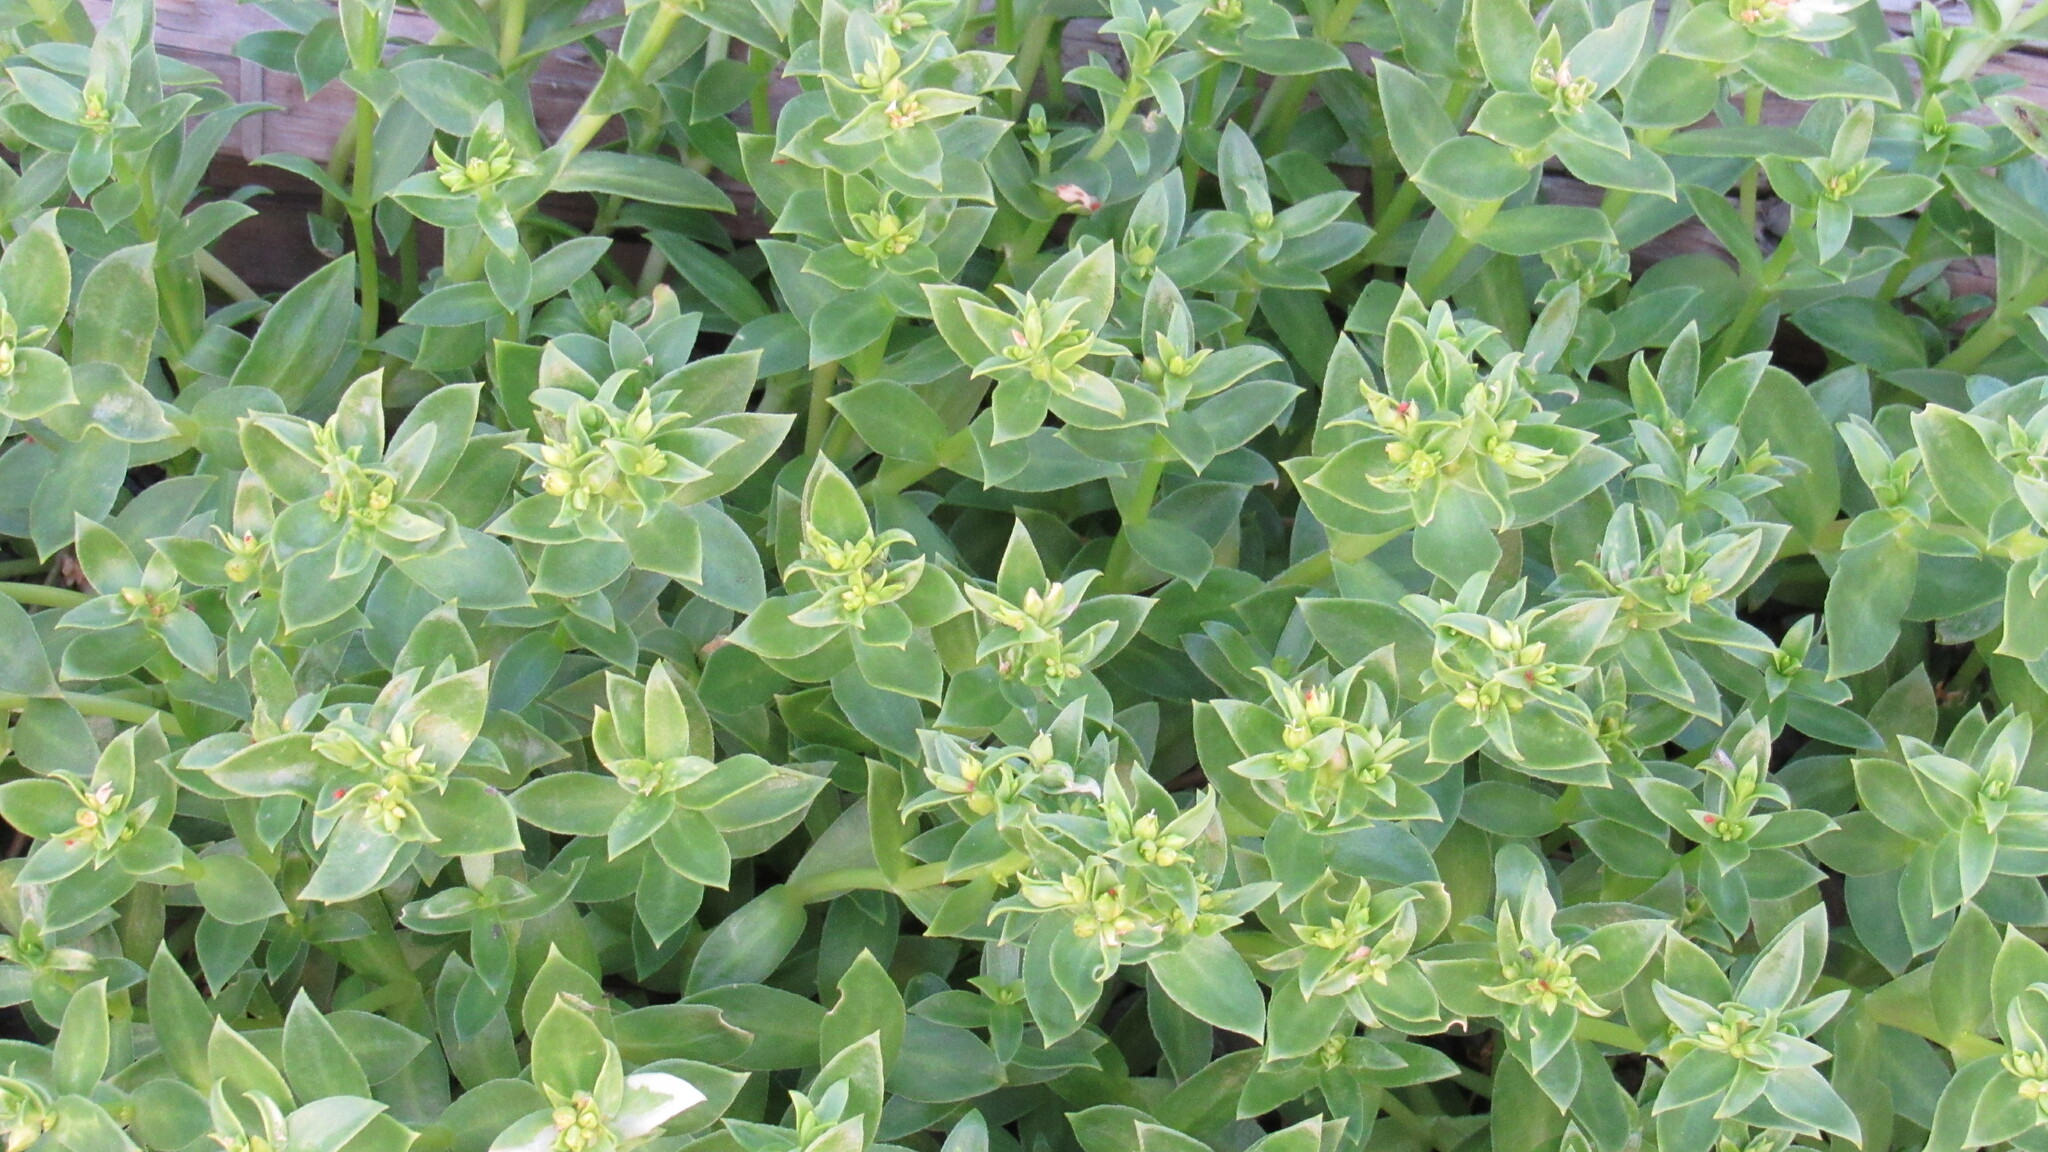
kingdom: Plantae
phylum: Tracheophyta
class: Magnoliopsida
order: Caryophyllales
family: Caryophyllaceae
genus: Honckenya
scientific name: Honckenya peploides
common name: Sea sandwort
